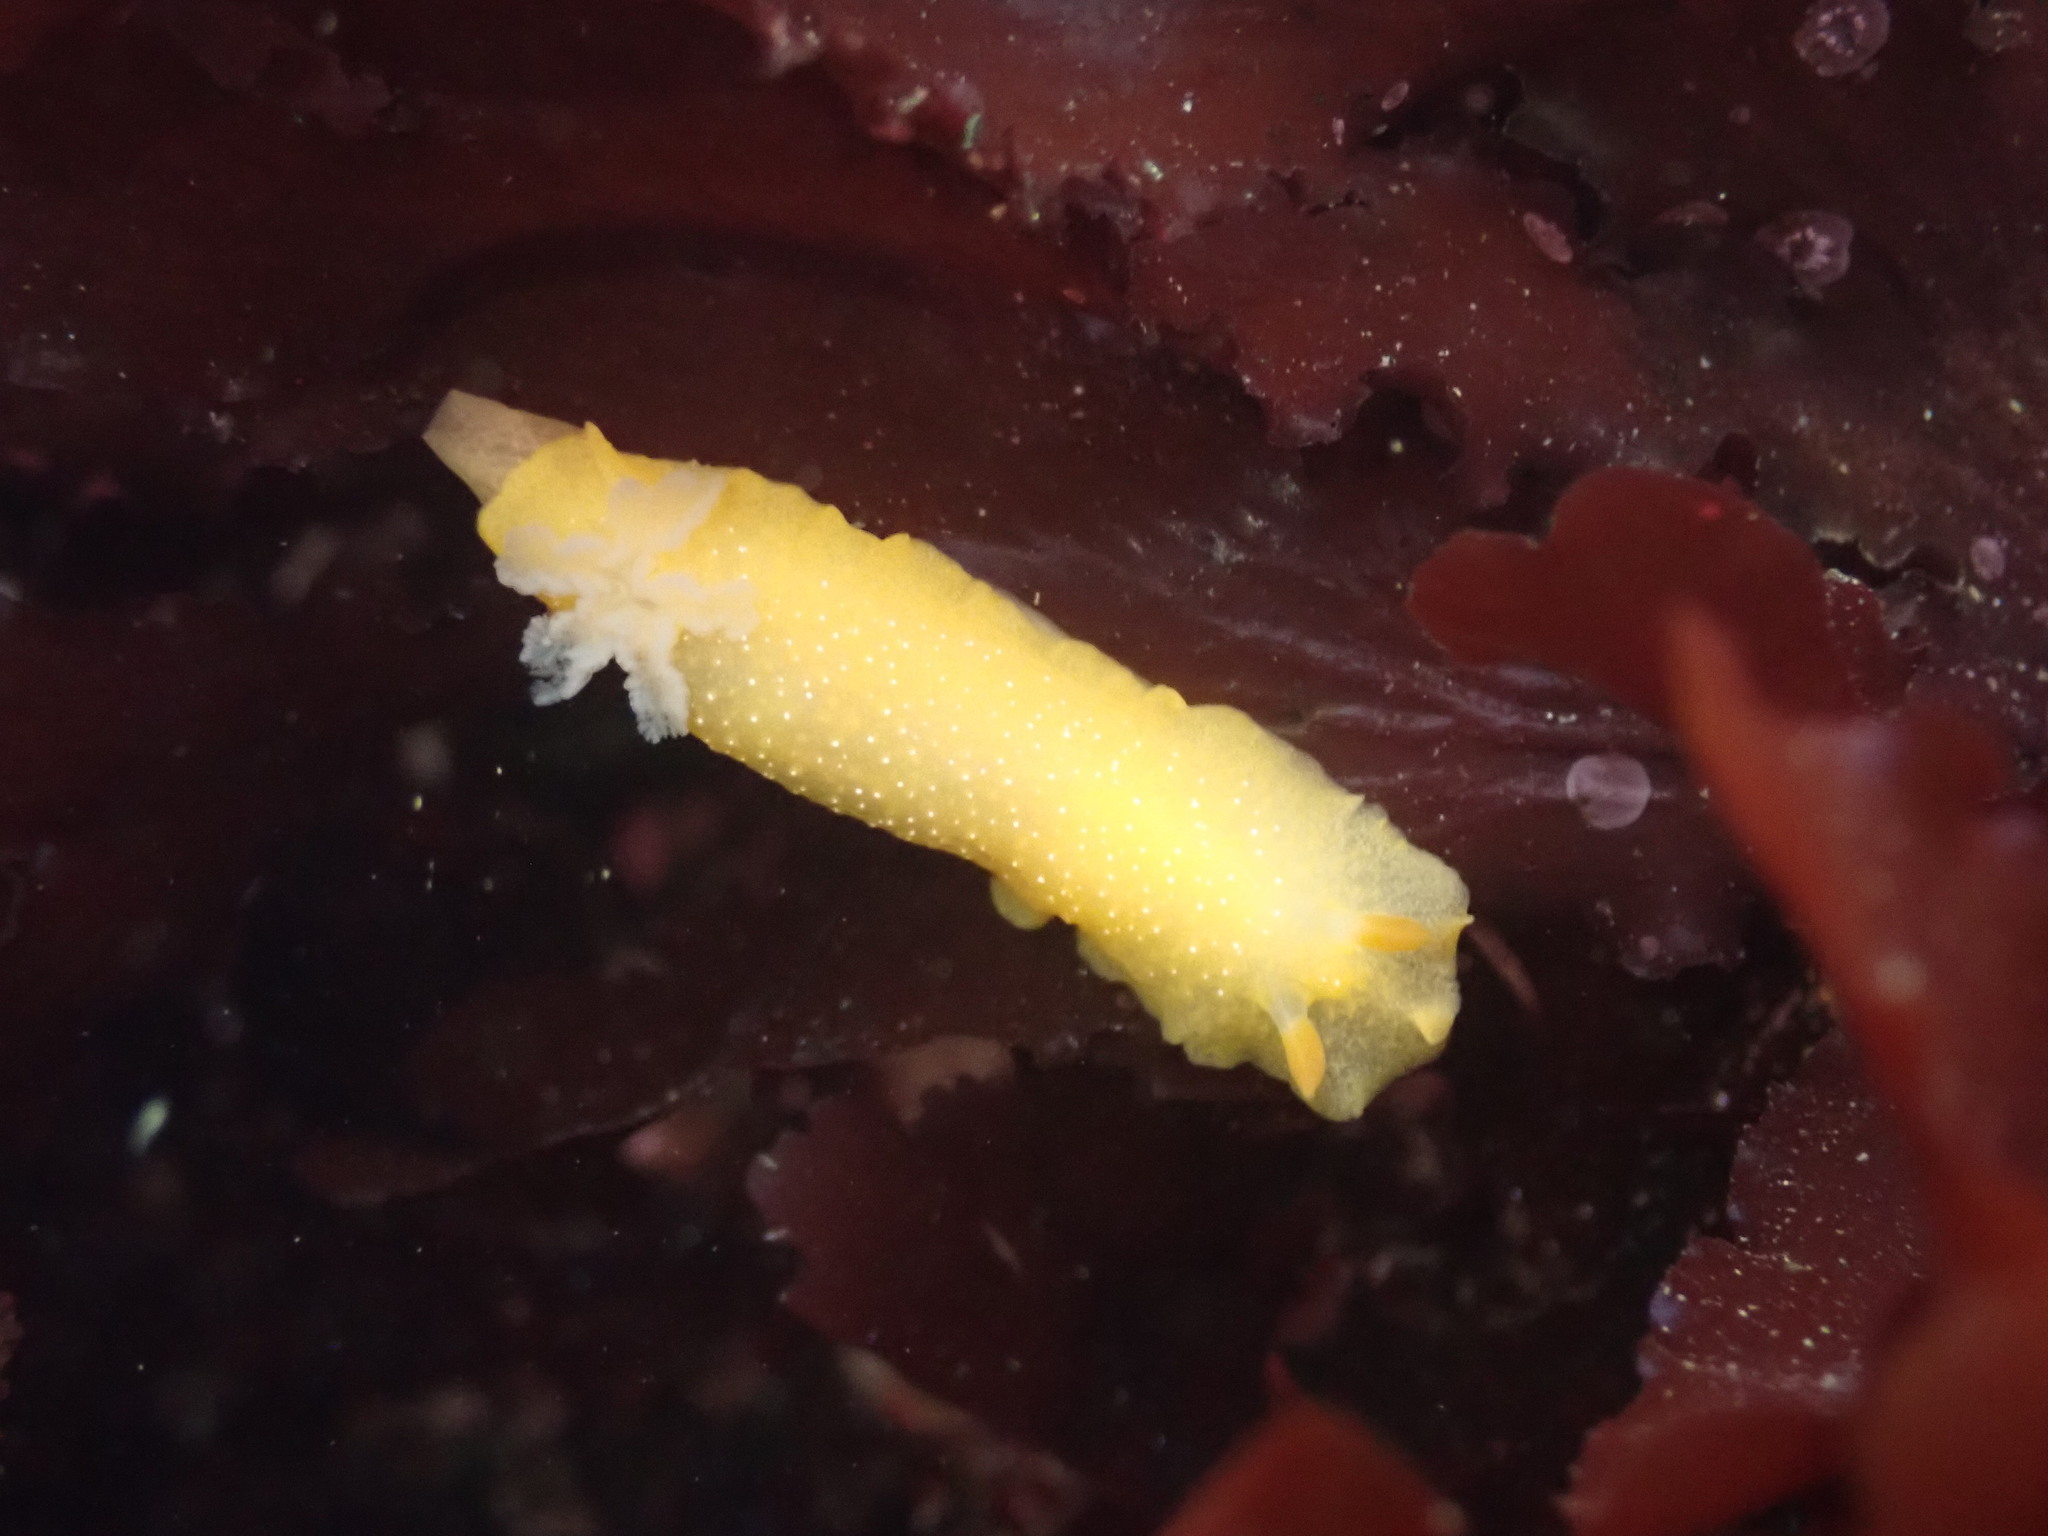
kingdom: Animalia
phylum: Mollusca
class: Gastropoda
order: Nudibranchia
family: Dendrodorididae
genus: Doriopsilla
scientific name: Doriopsilla fulva
